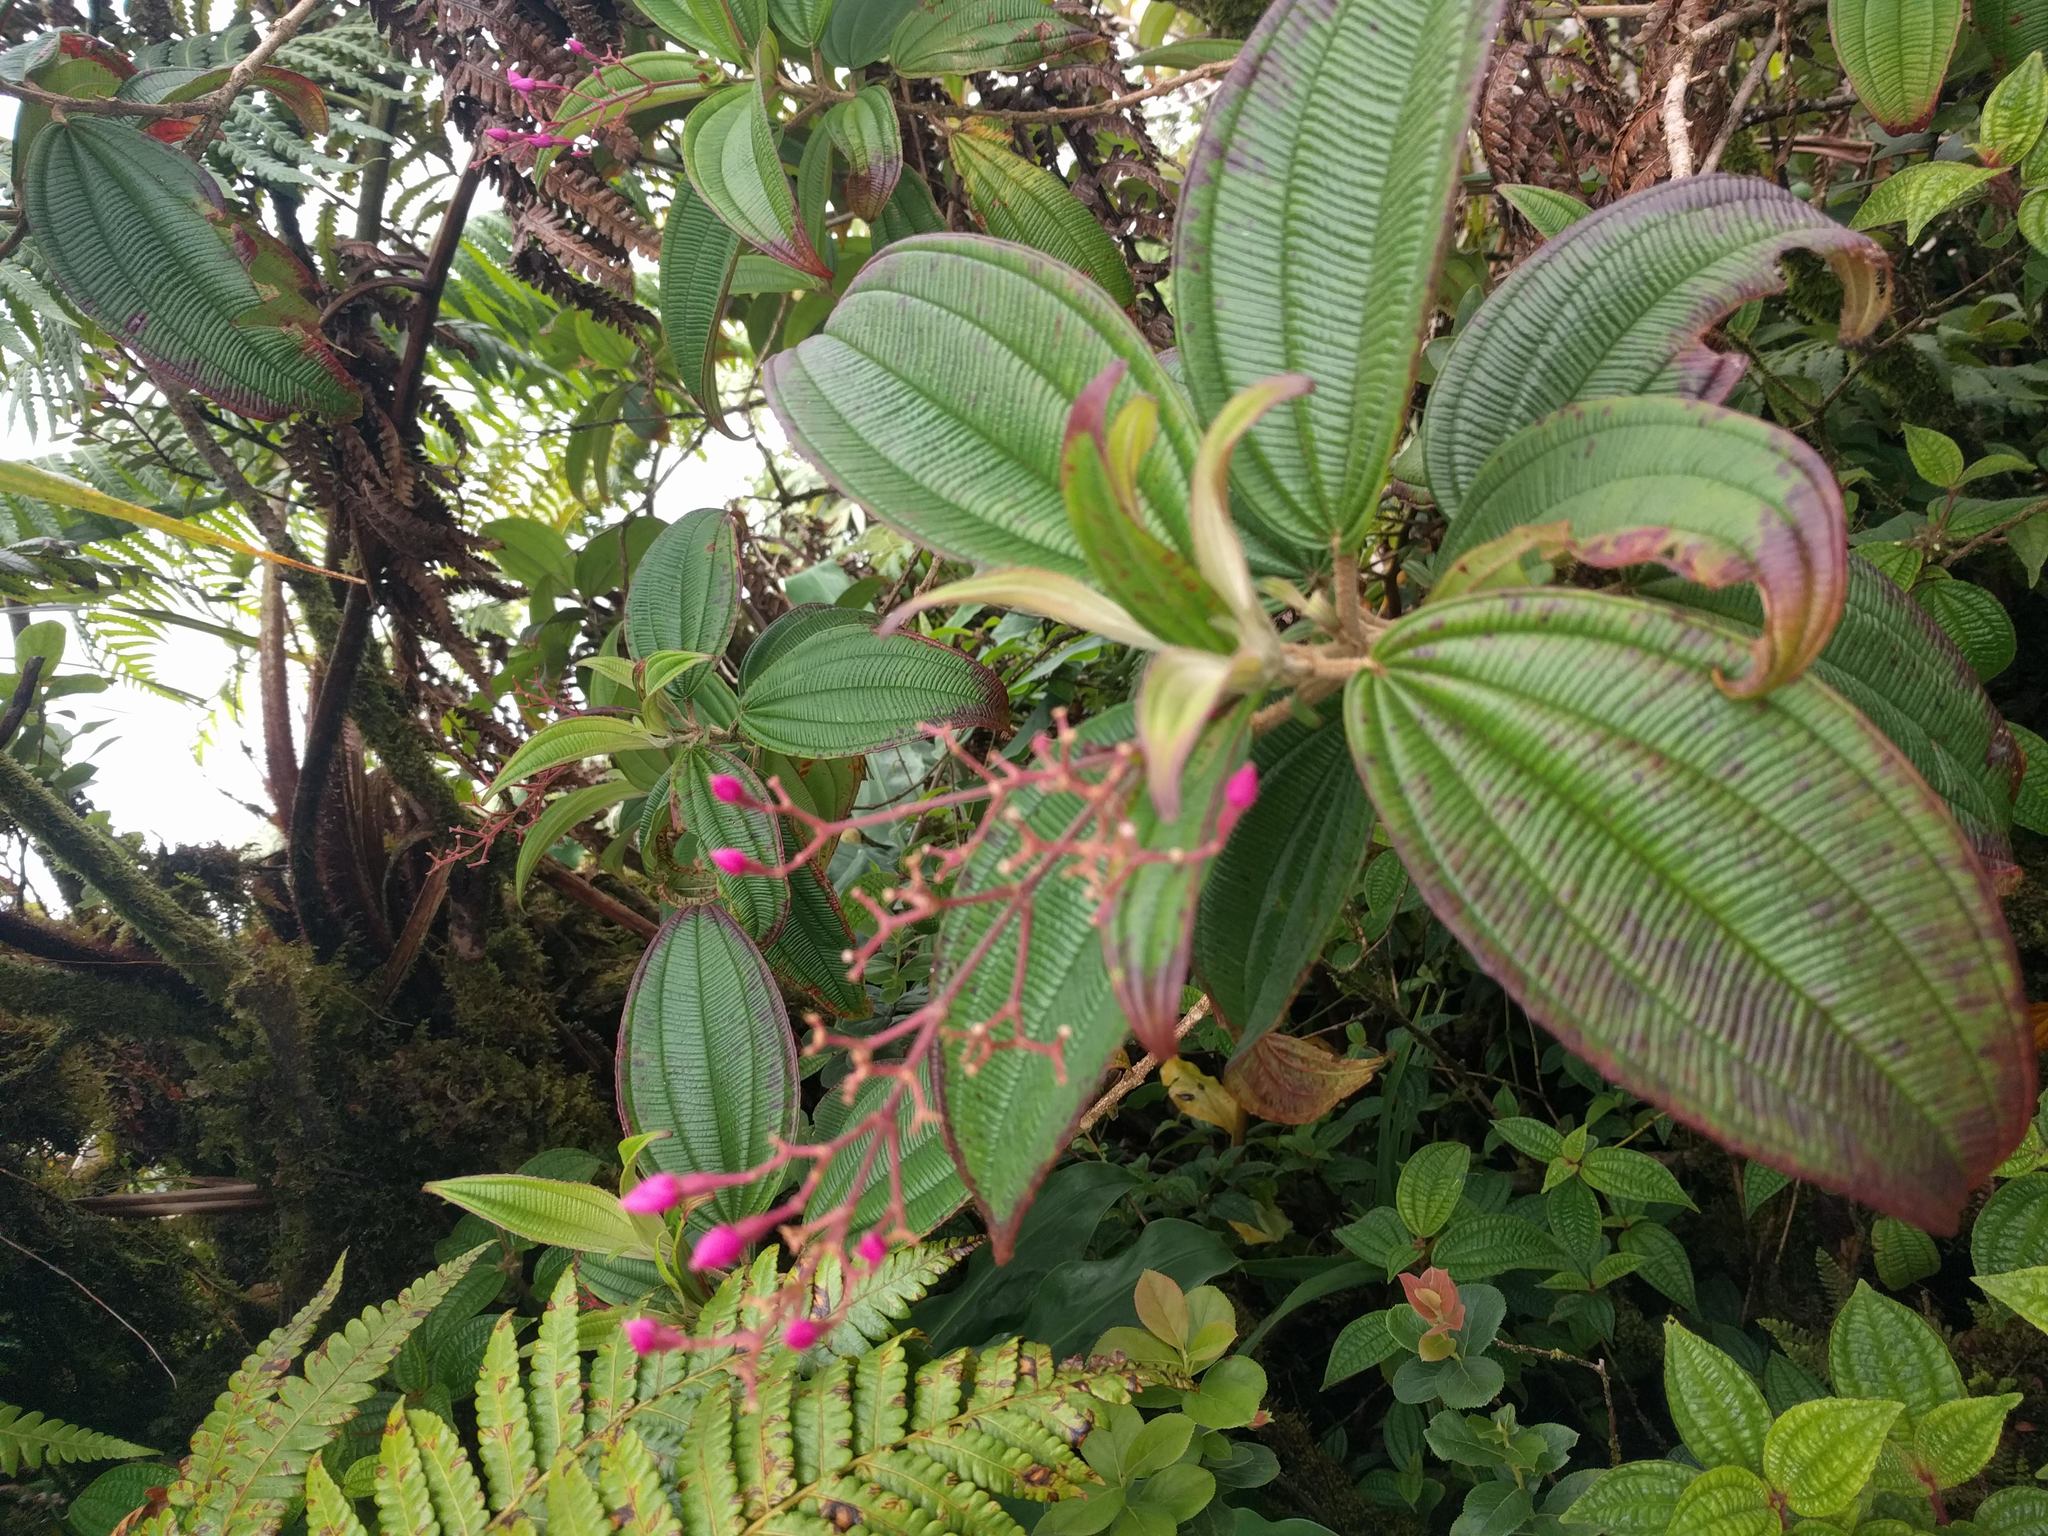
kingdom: Plantae
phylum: Tracheophyta
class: Magnoliopsida
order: Myrtales
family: Melastomataceae
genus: Oxyspora
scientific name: Oxyspora paniculata
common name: Bristletips
